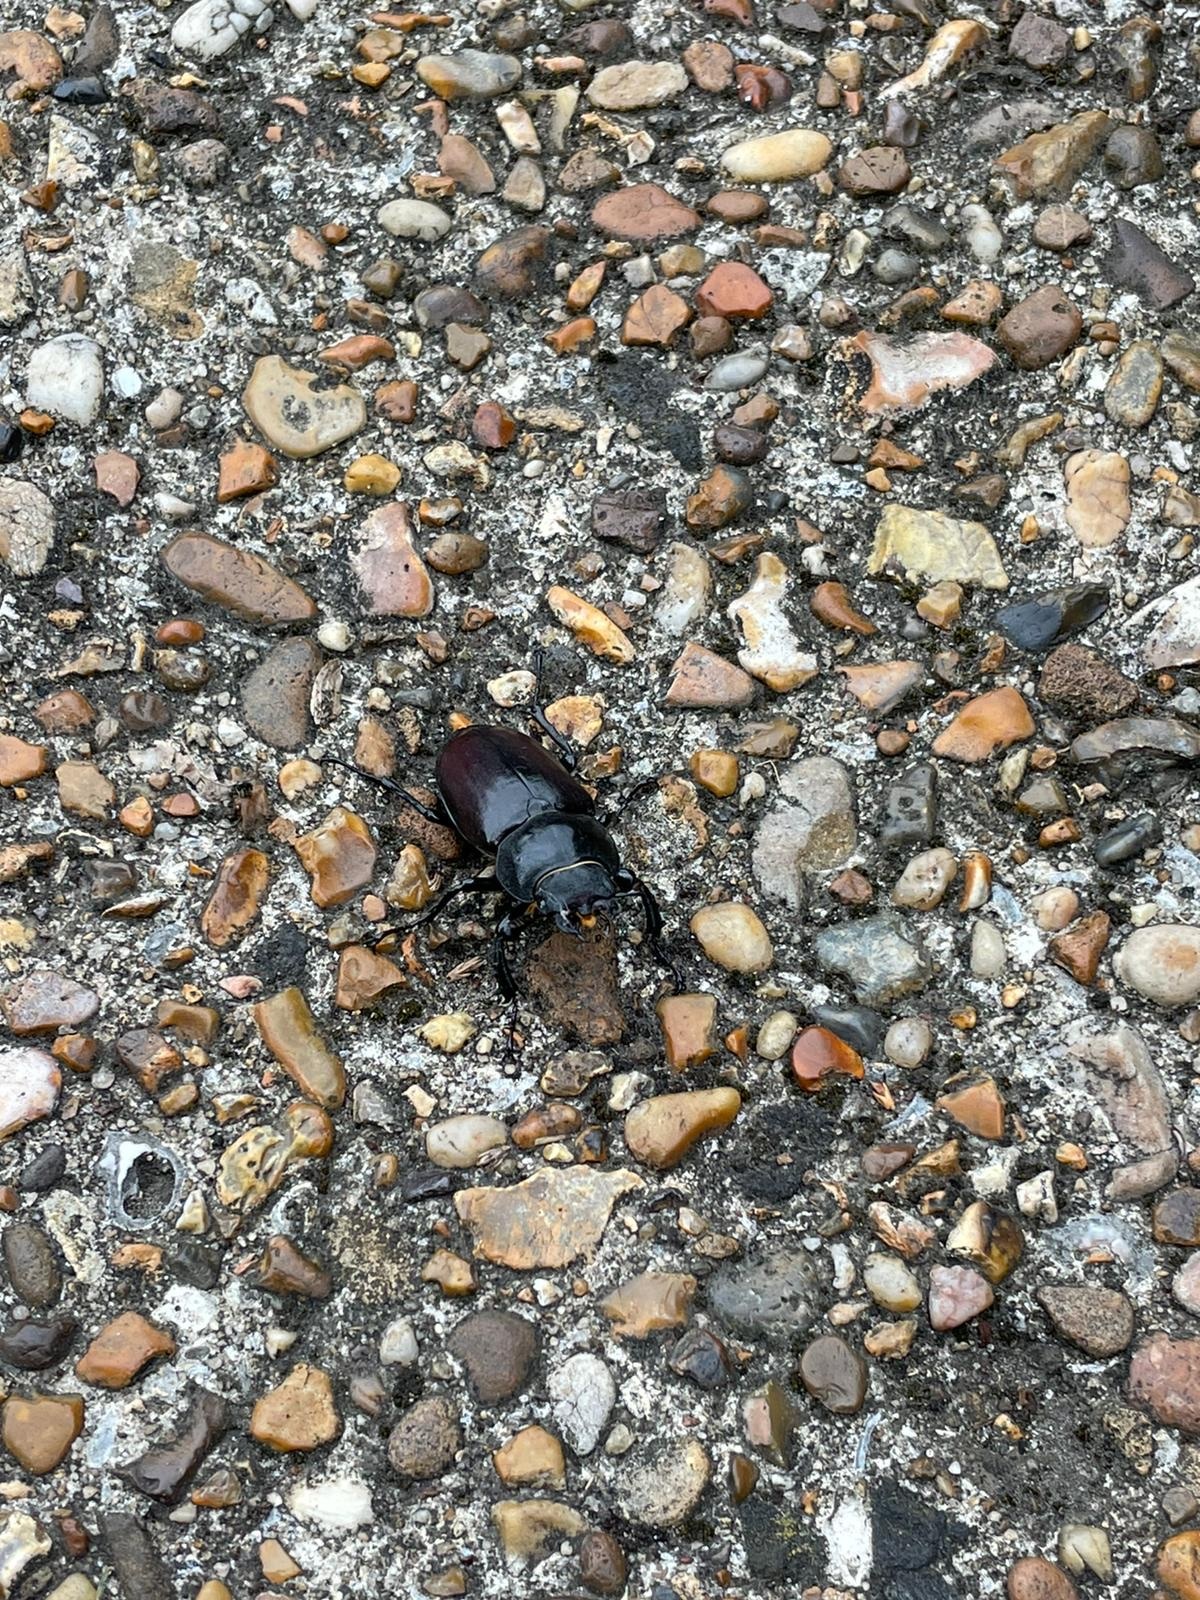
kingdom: Animalia
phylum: Arthropoda
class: Insecta
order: Coleoptera
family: Lucanidae
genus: Lucanus
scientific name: Lucanus cervus
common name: Stag beetle
